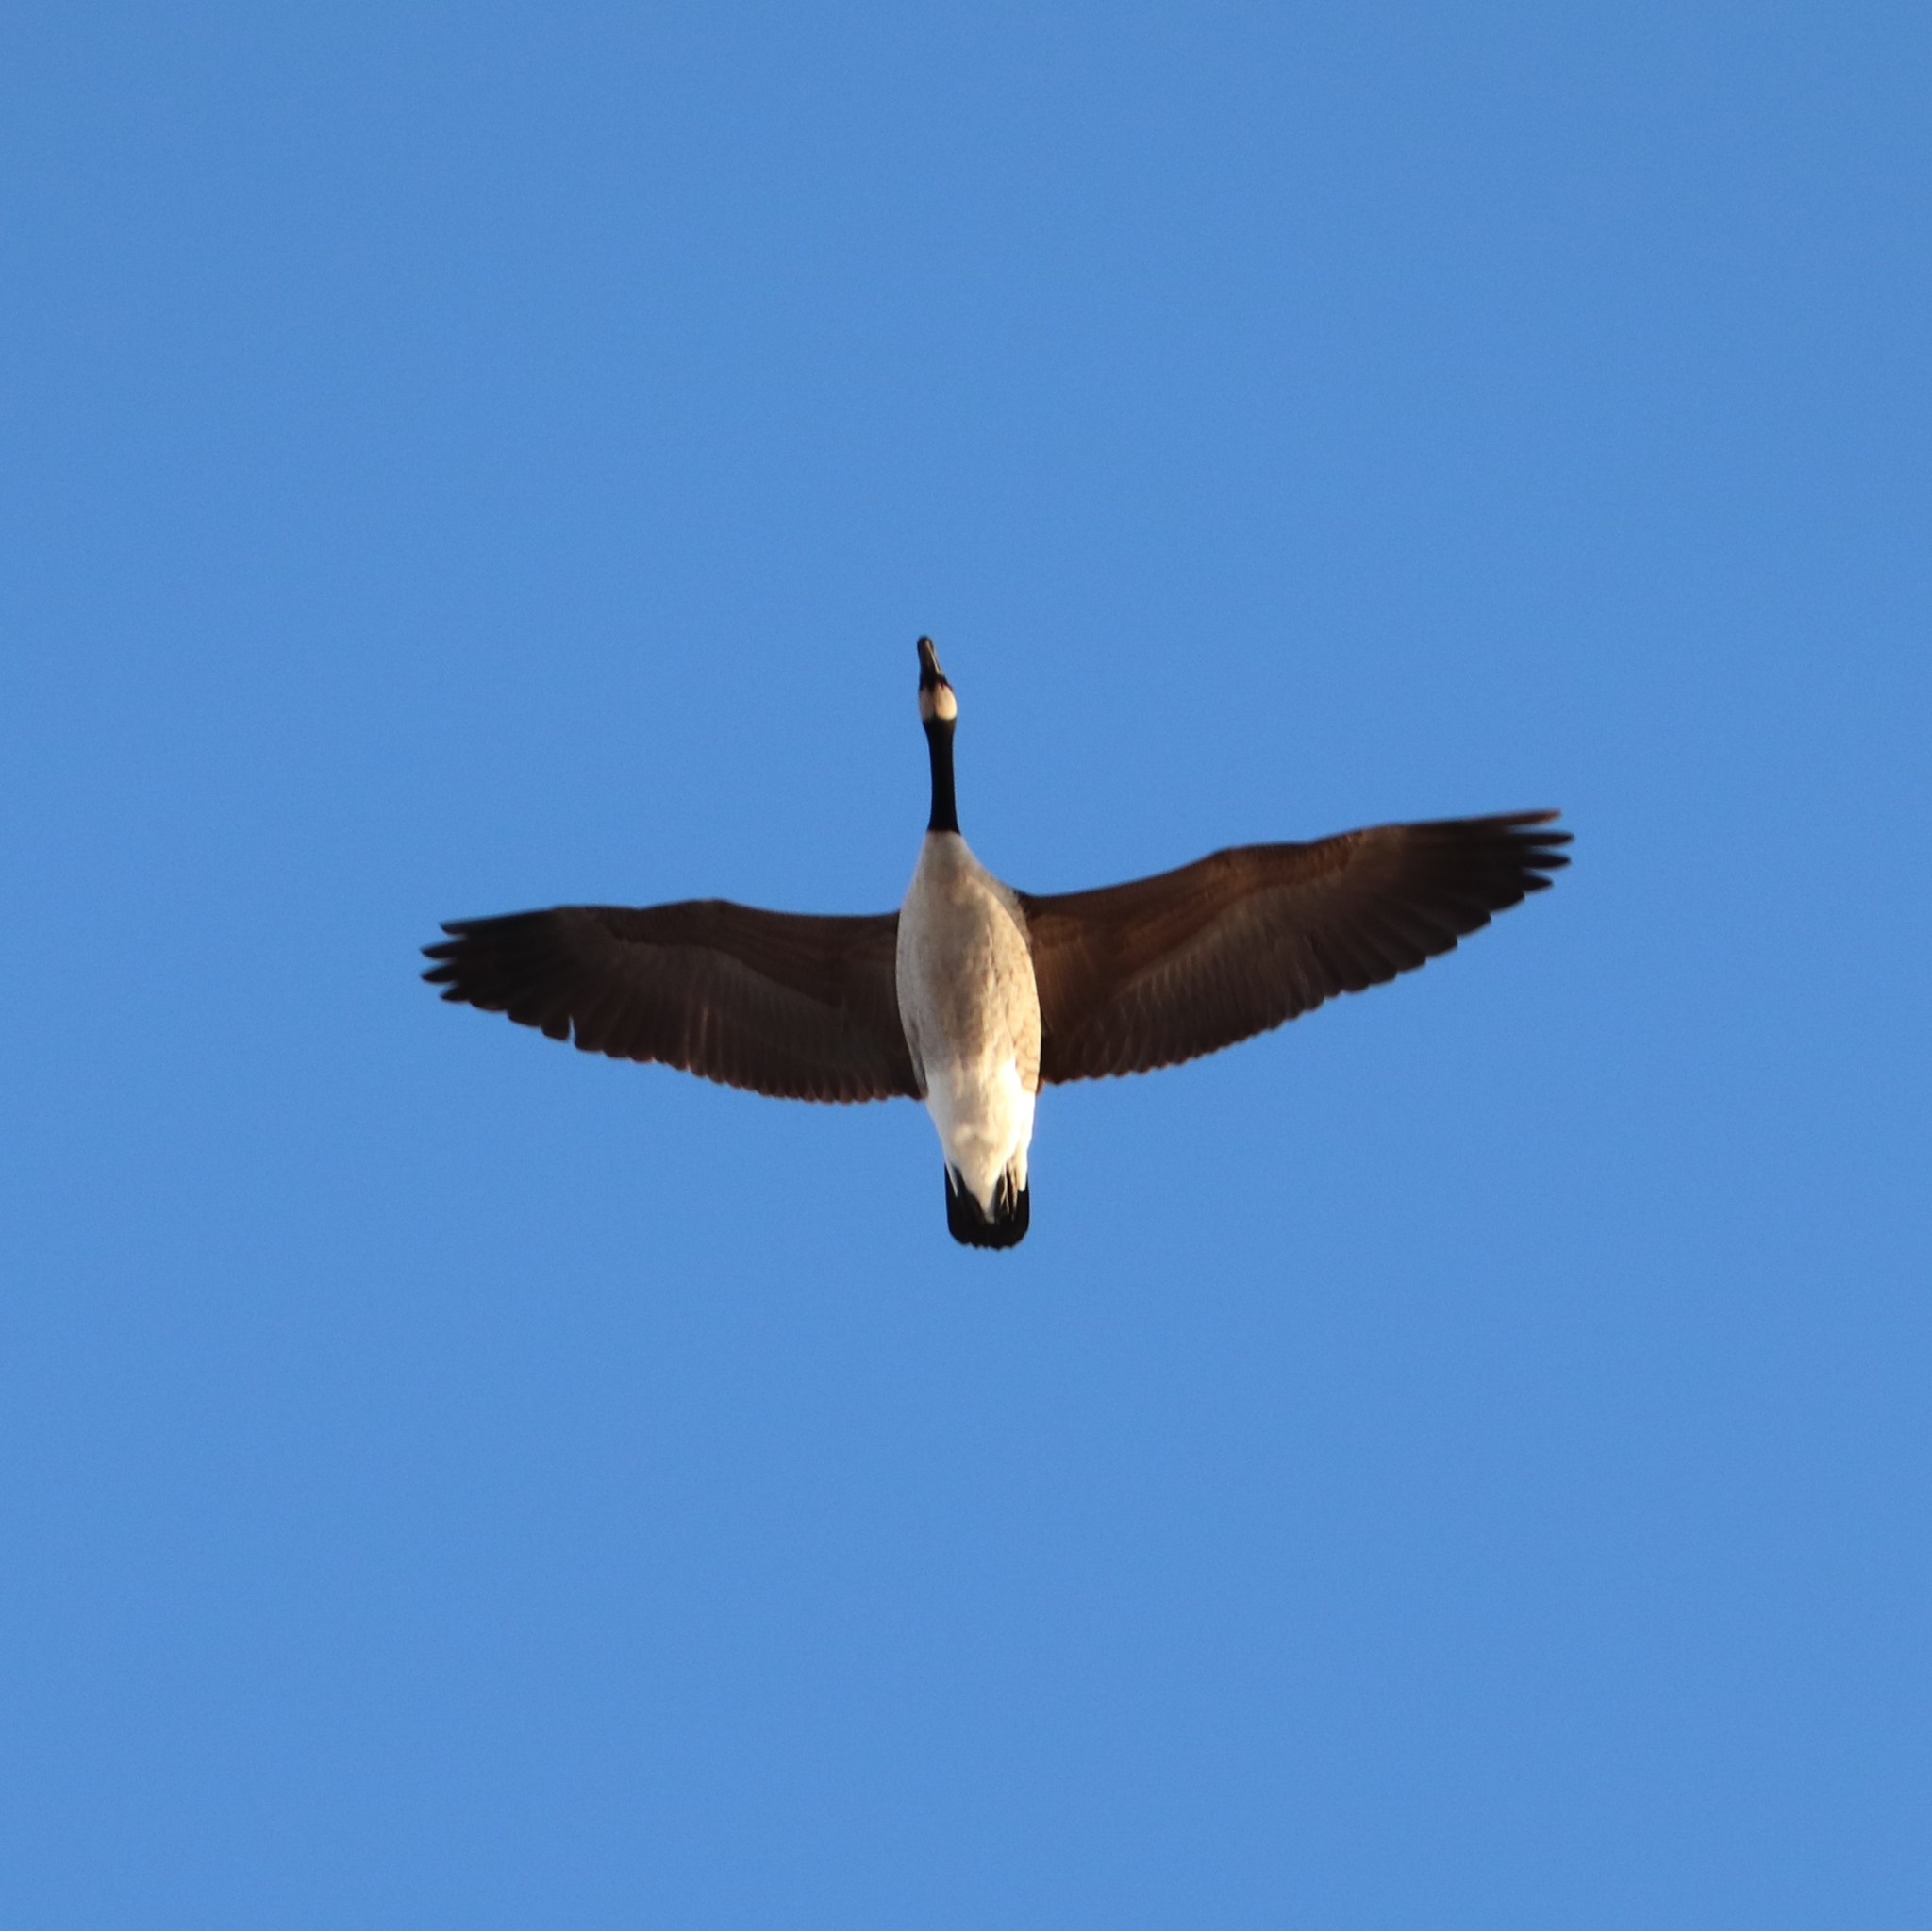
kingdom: Animalia
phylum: Chordata
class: Aves
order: Anseriformes
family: Anatidae
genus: Branta
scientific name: Branta canadensis
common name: Canada goose
